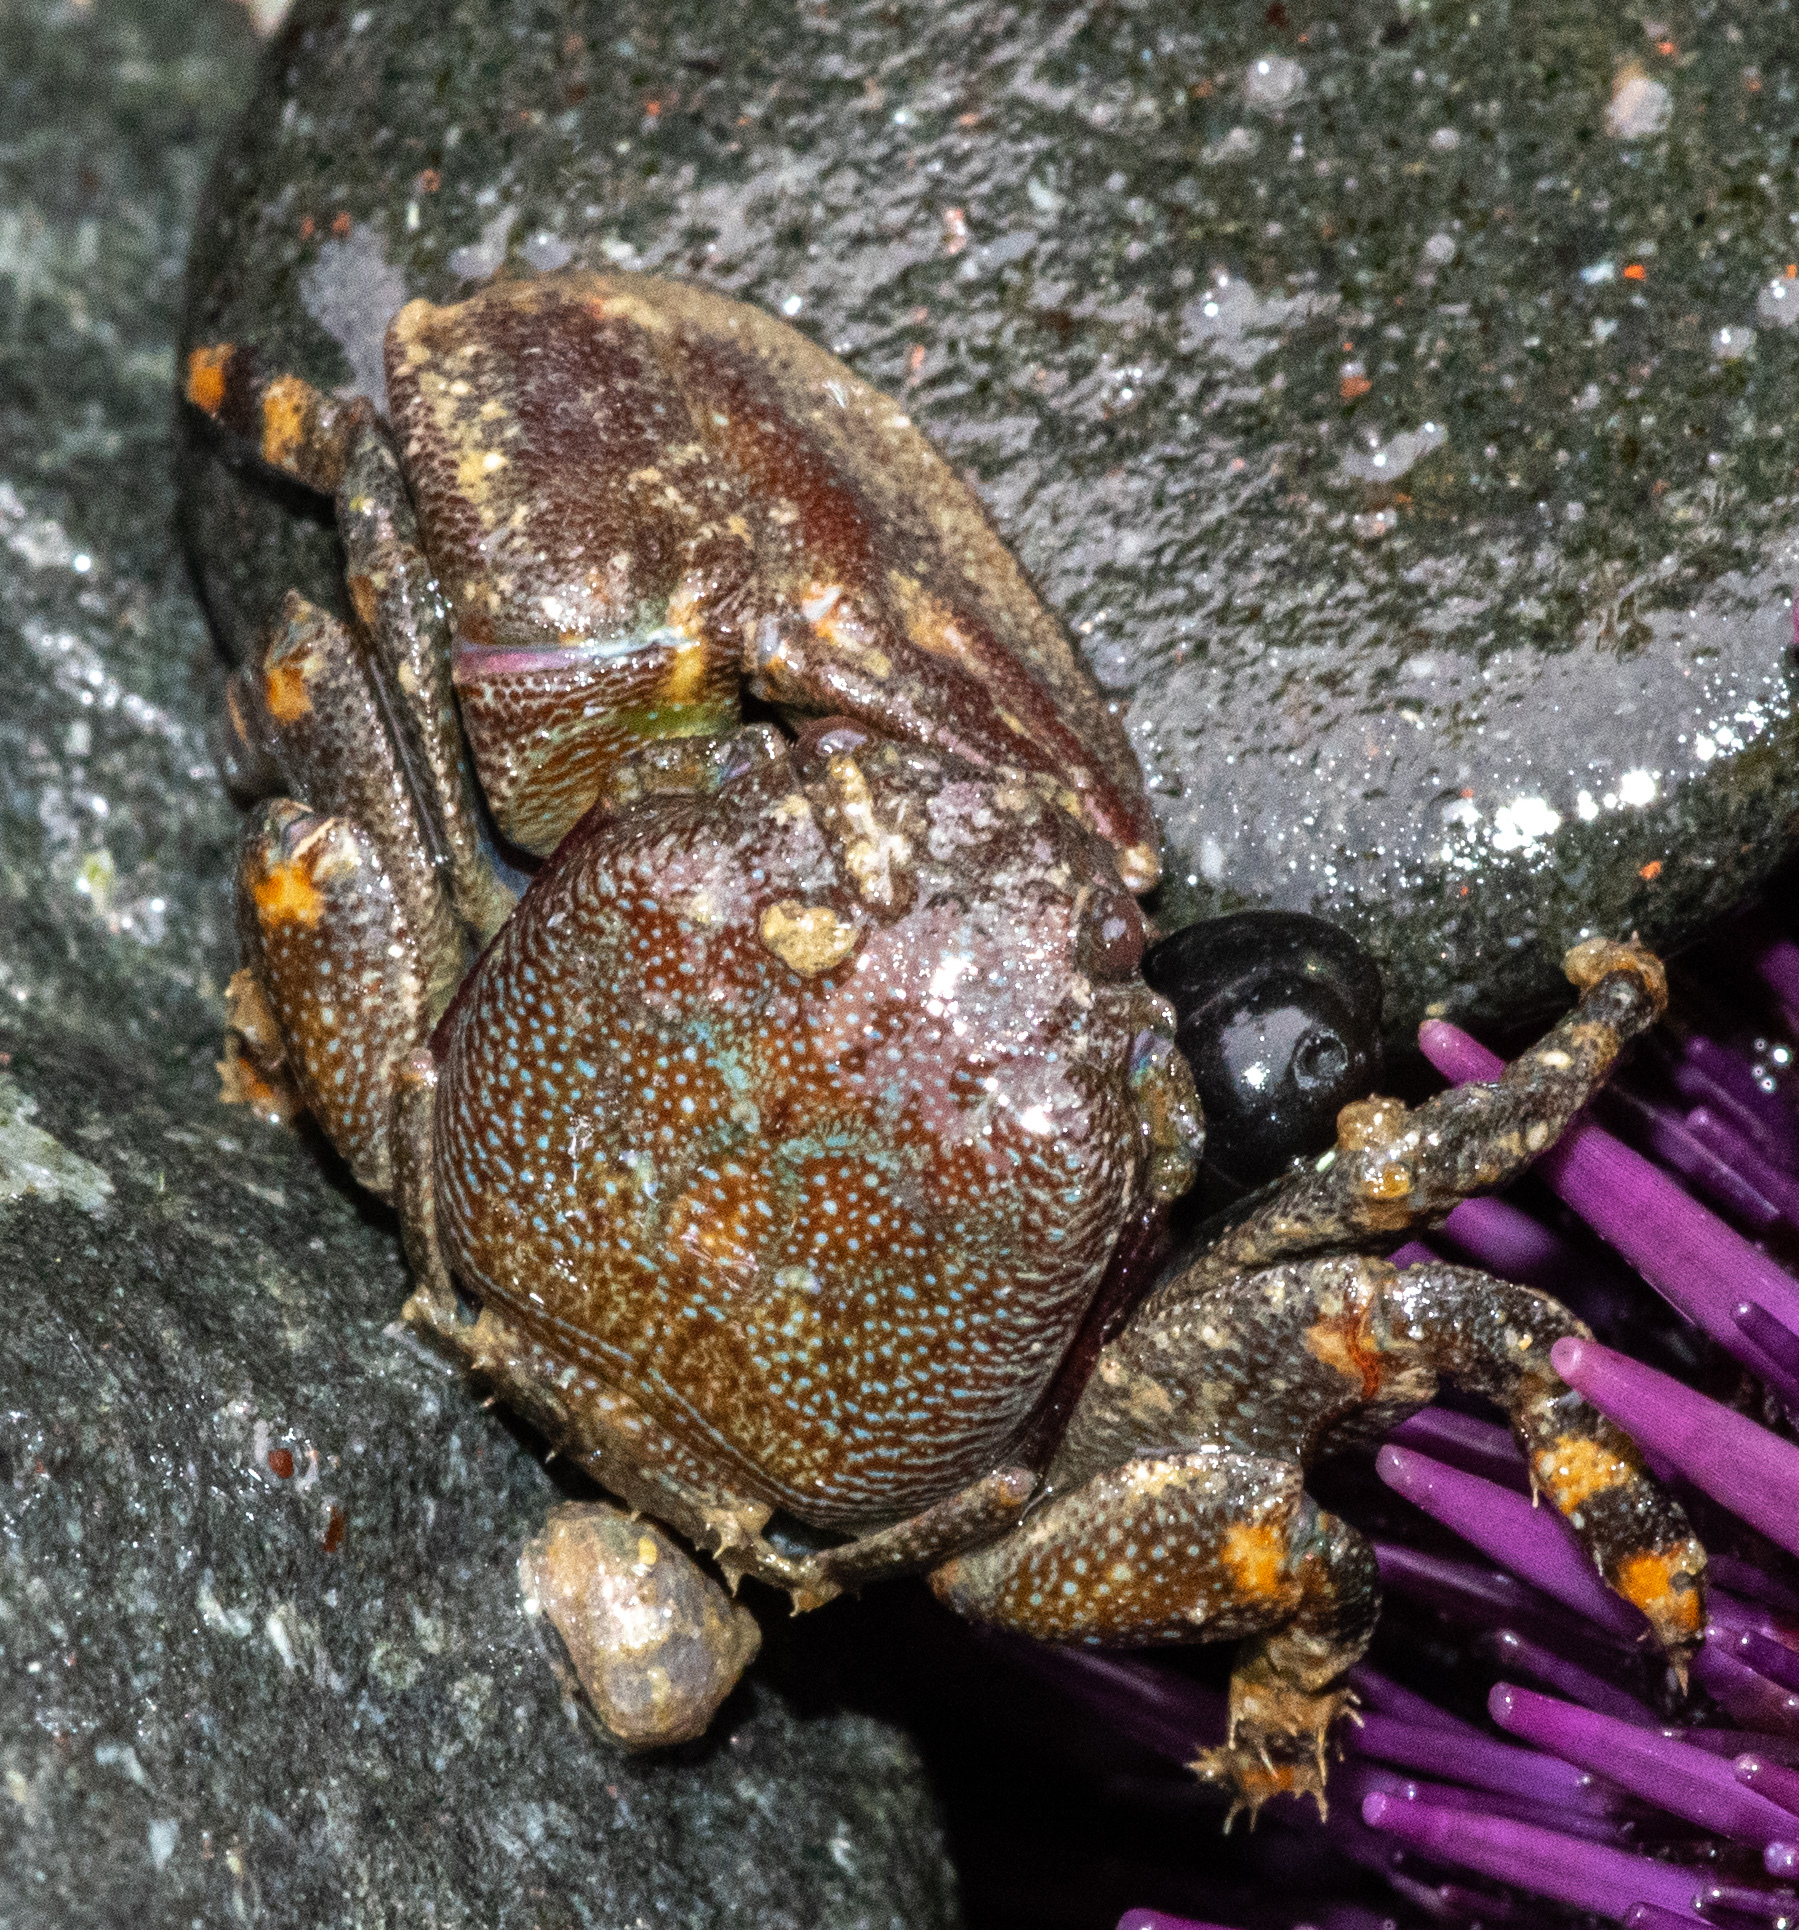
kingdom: Animalia
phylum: Arthropoda
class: Malacostraca
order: Decapoda
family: Porcellanidae
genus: Petrolisthes
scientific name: Petrolisthes cinctipes
